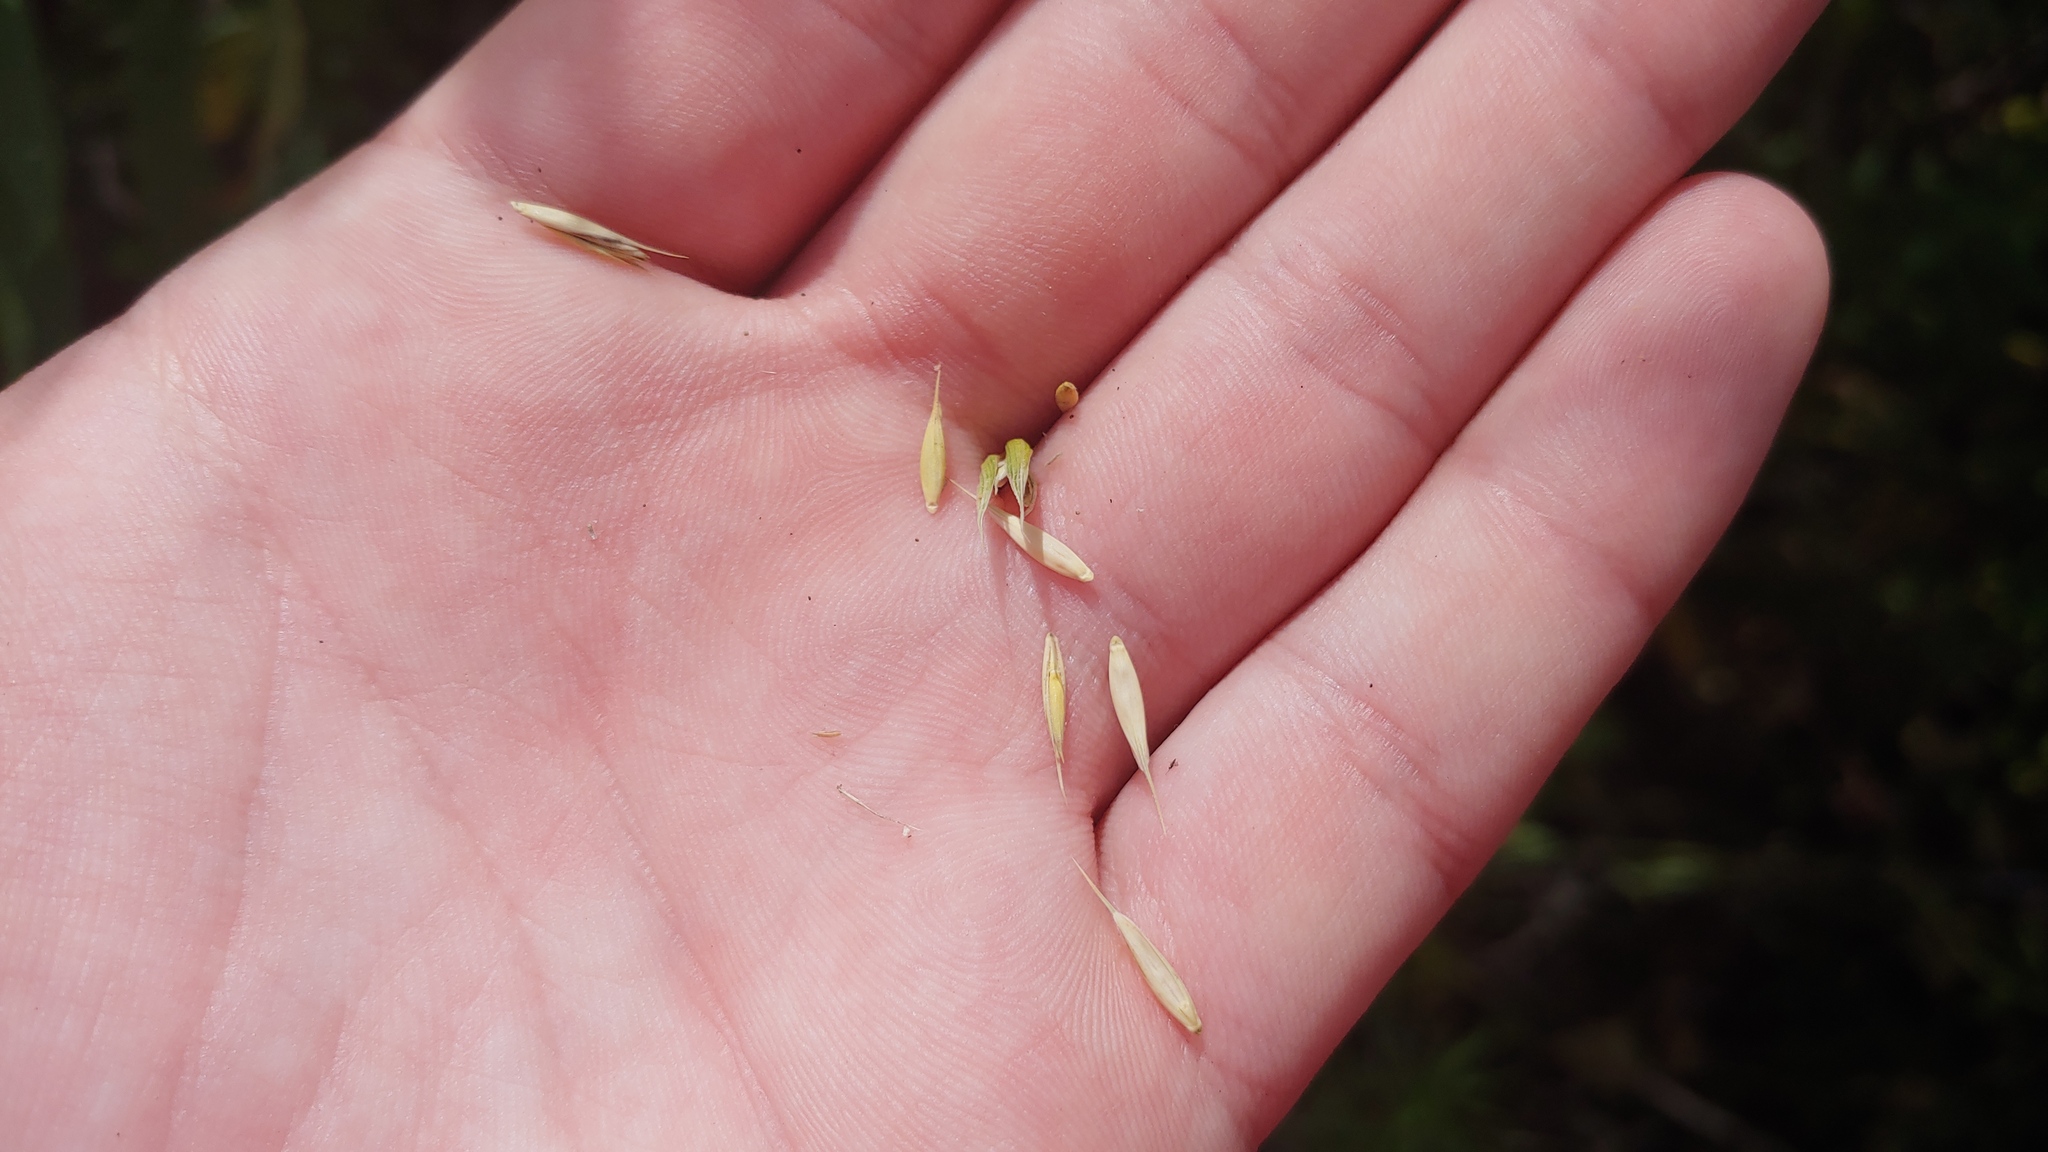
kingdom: Plantae
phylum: Tracheophyta
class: Liliopsida
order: Poales
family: Poaceae
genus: Elymus
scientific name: Elymus virginicus
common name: Common eastern wildrye
